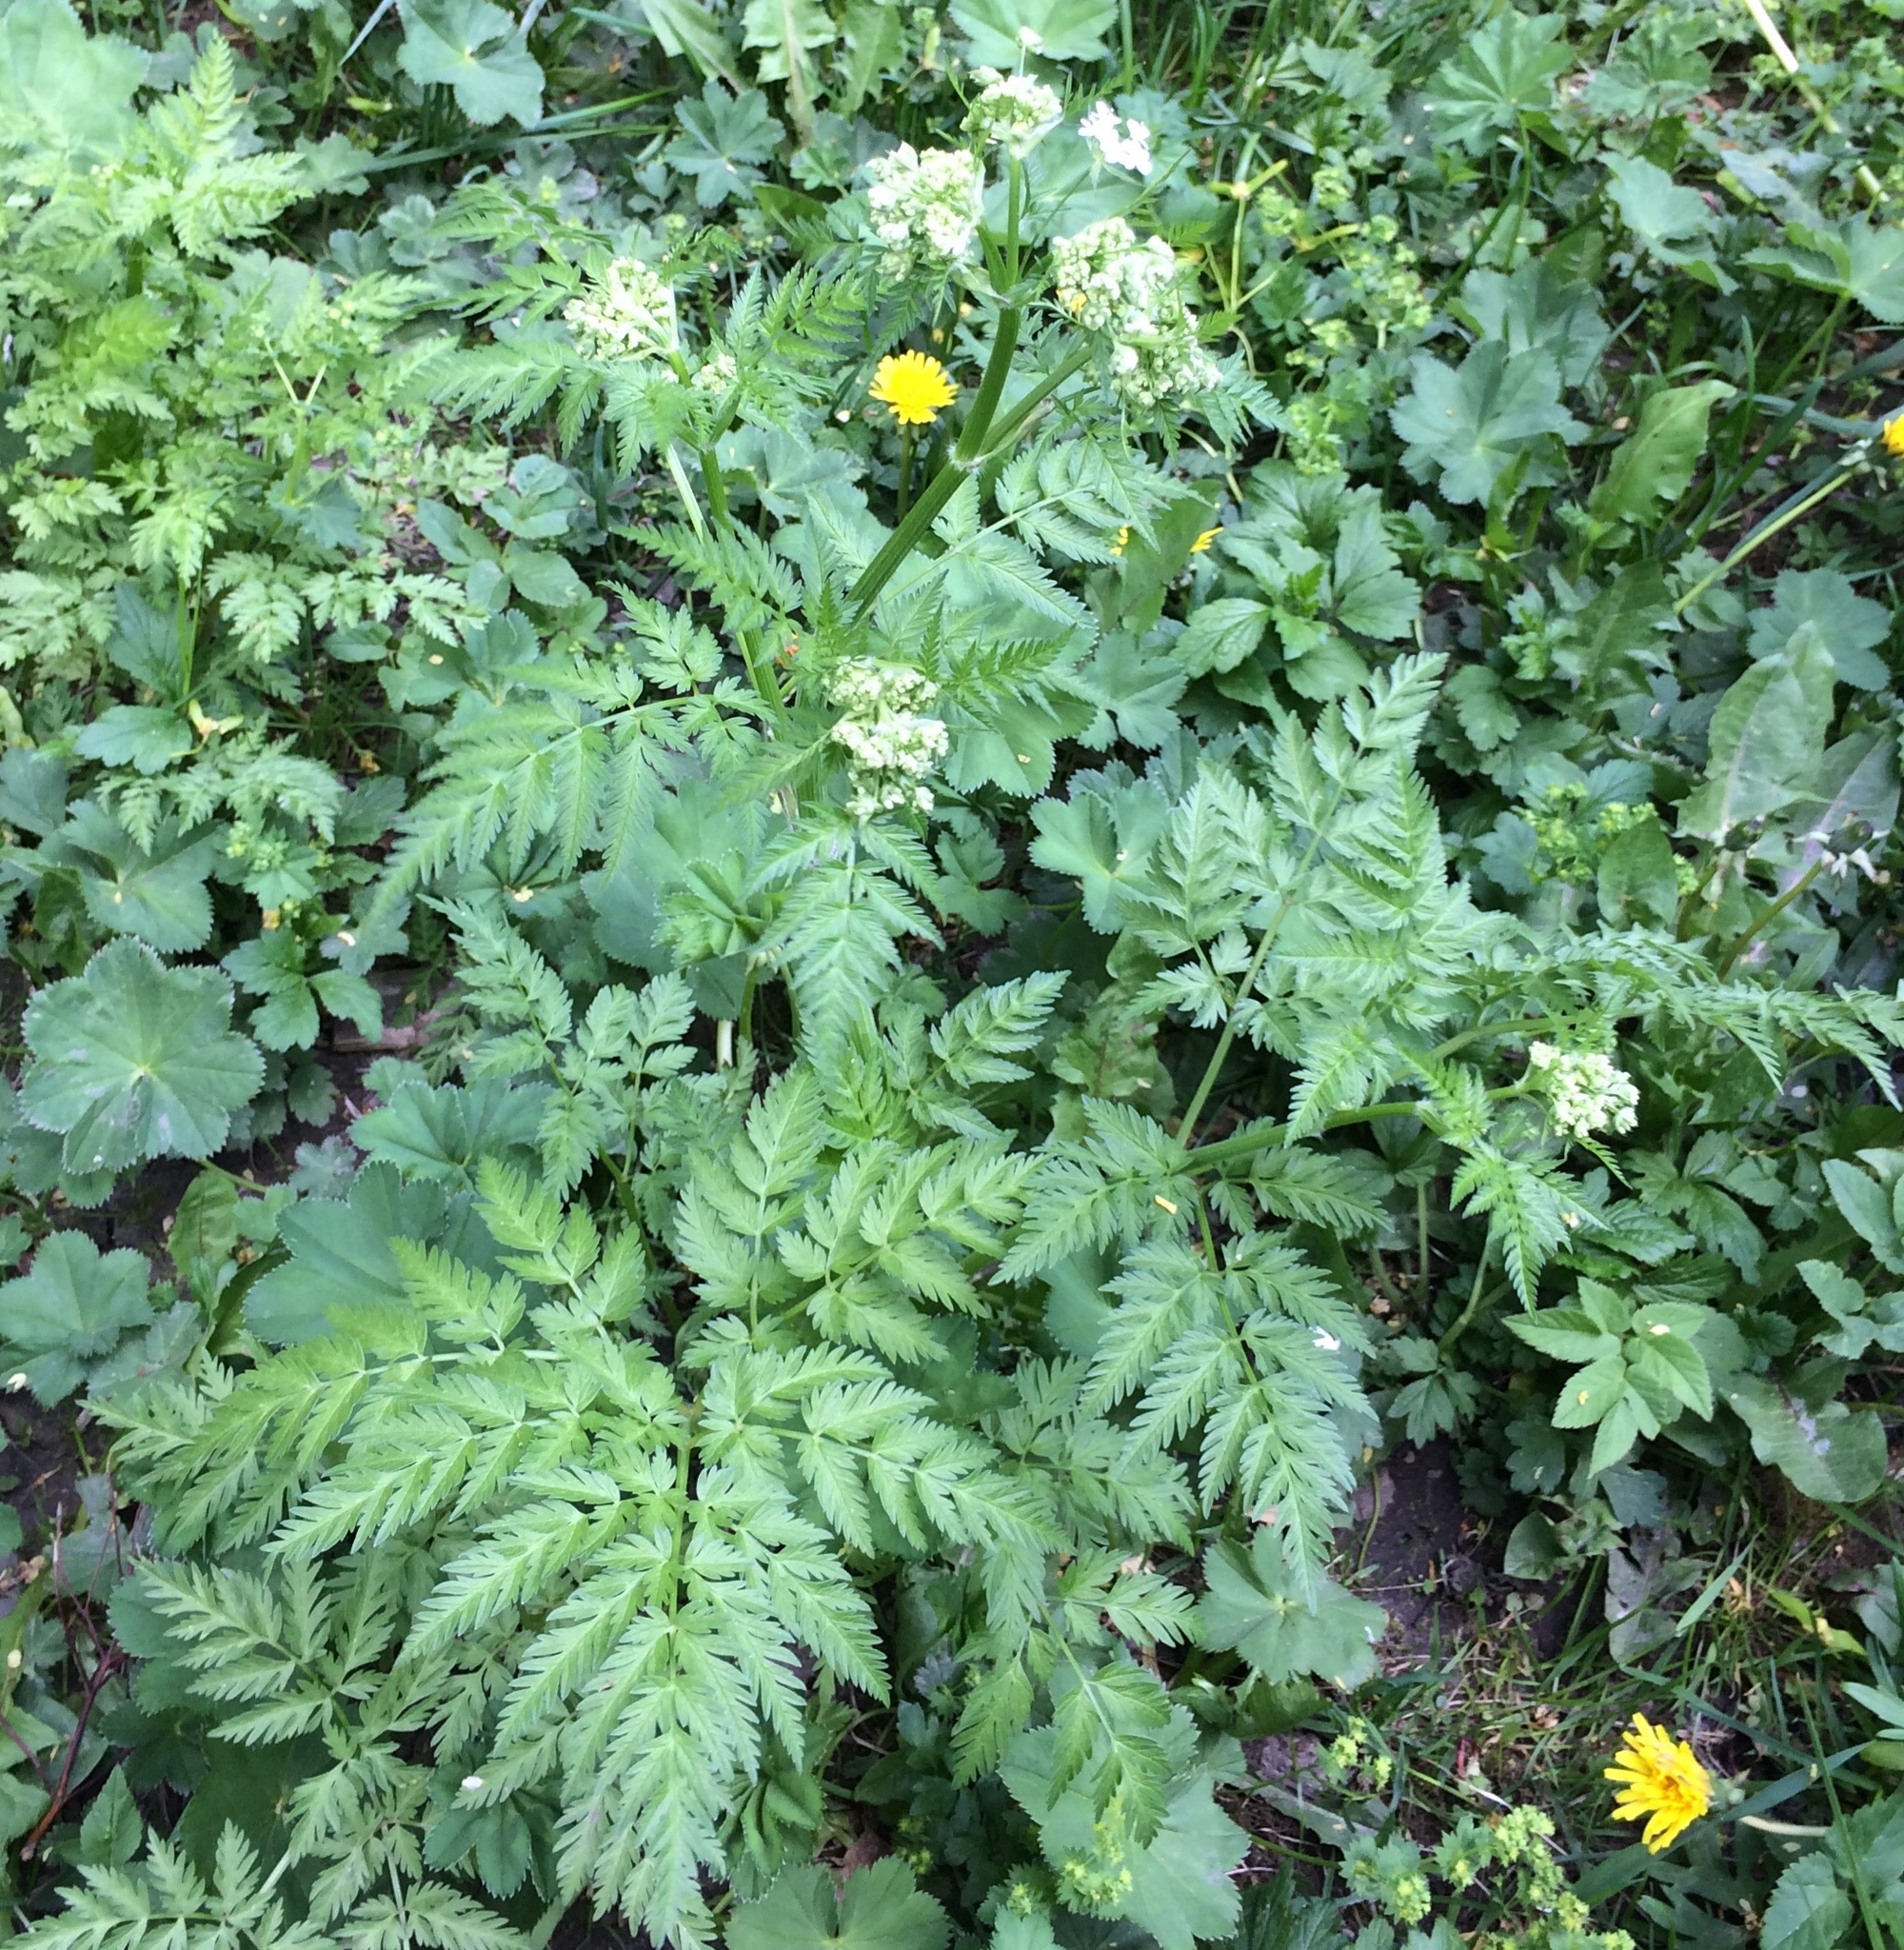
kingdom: Plantae
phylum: Tracheophyta
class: Magnoliopsida
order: Apiales
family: Apiaceae
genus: Anthriscus
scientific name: Anthriscus sylvestris
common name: Cow parsley
